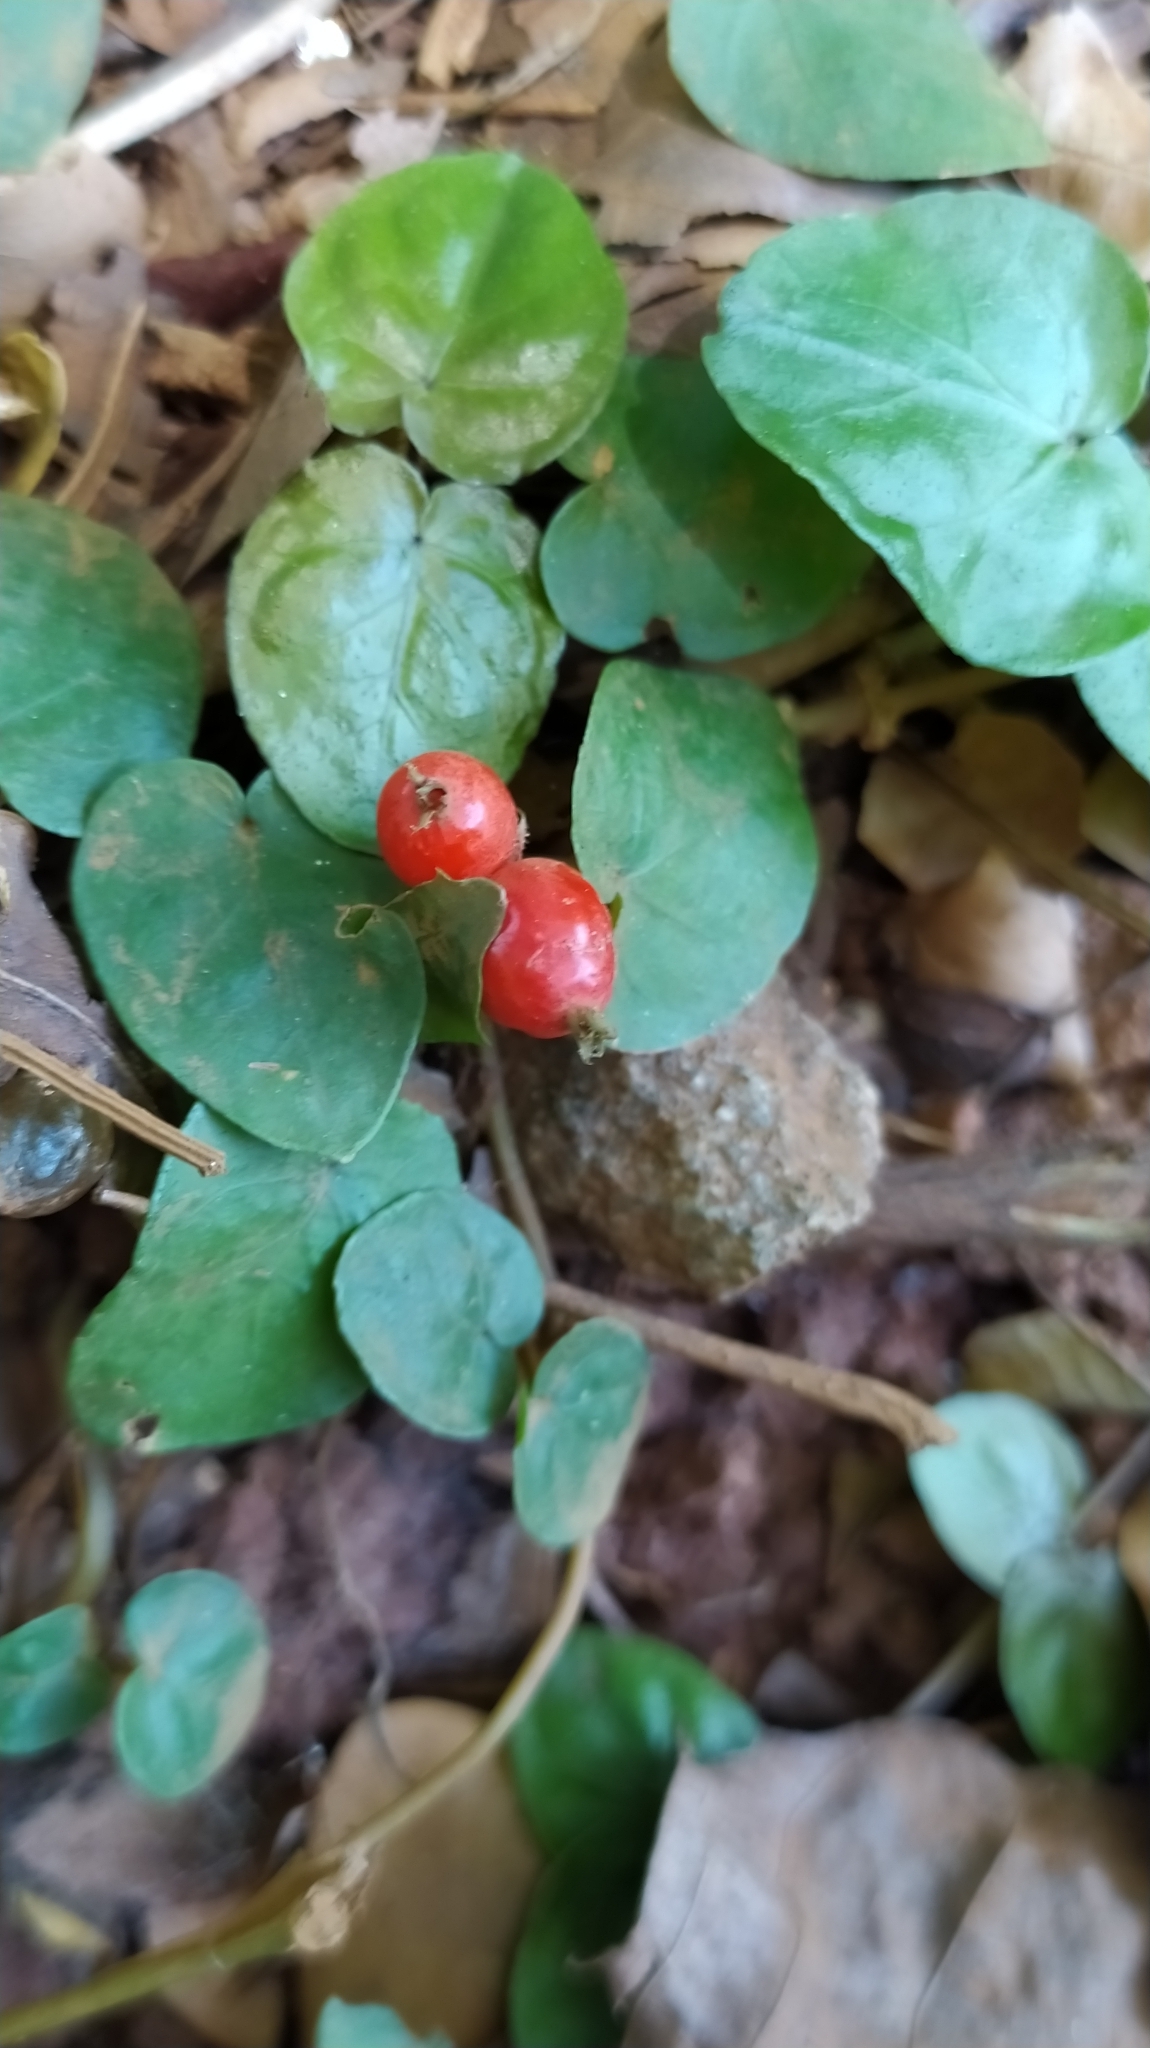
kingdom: Plantae
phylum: Tracheophyta
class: Magnoliopsida
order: Gentianales
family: Rubiaceae
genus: Geophila
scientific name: Geophila repens
